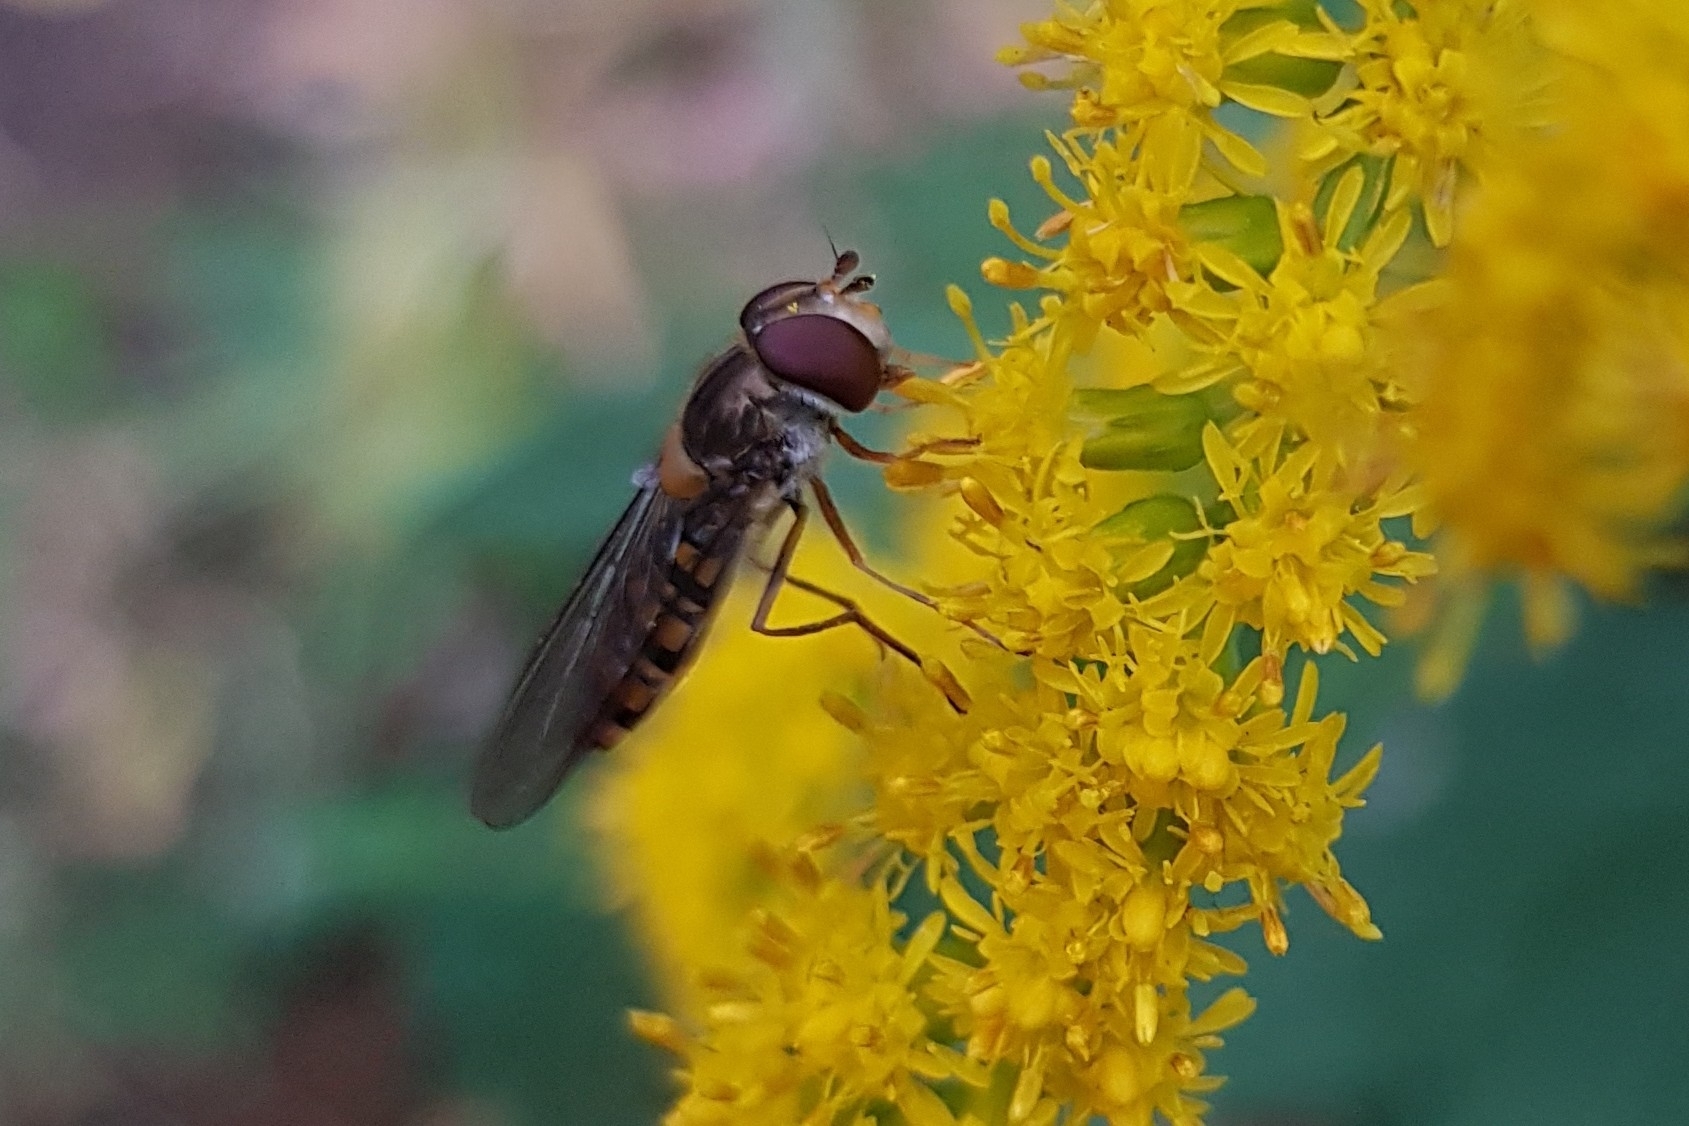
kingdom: Animalia
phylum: Arthropoda
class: Insecta
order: Diptera
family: Syrphidae
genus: Episyrphus
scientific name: Episyrphus balteatus
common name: Marmalade hoverfly
